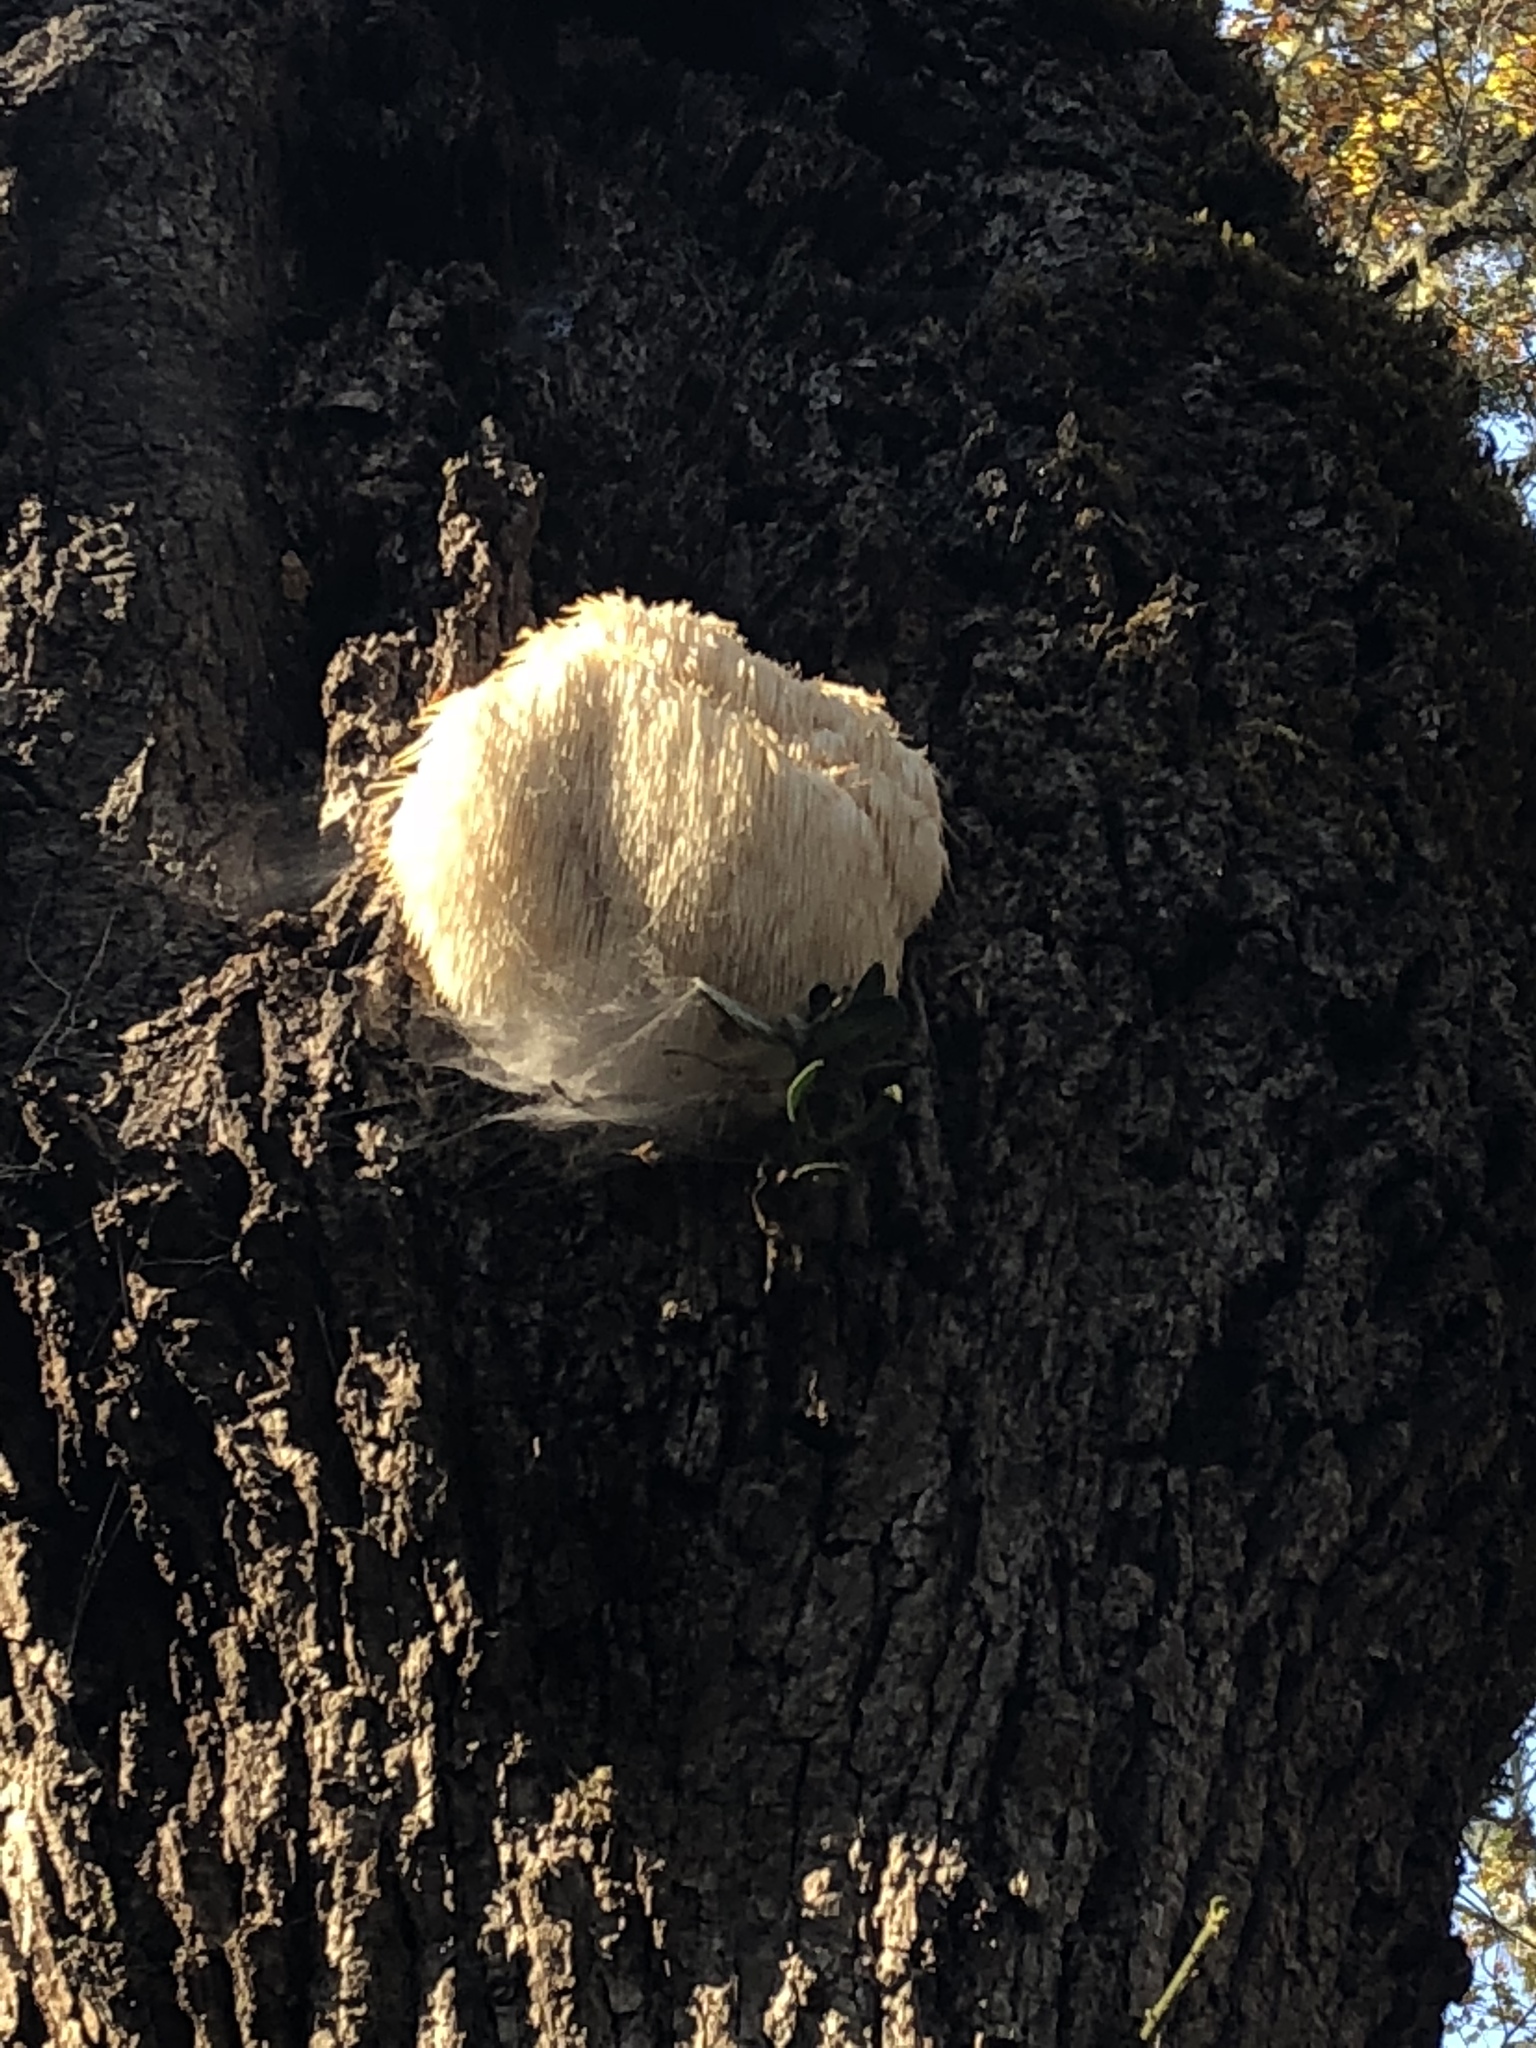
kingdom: Fungi
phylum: Basidiomycota
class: Agaricomycetes
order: Russulales
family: Hericiaceae
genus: Hericium
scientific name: Hericium erinaceus
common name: Bearded tooth
